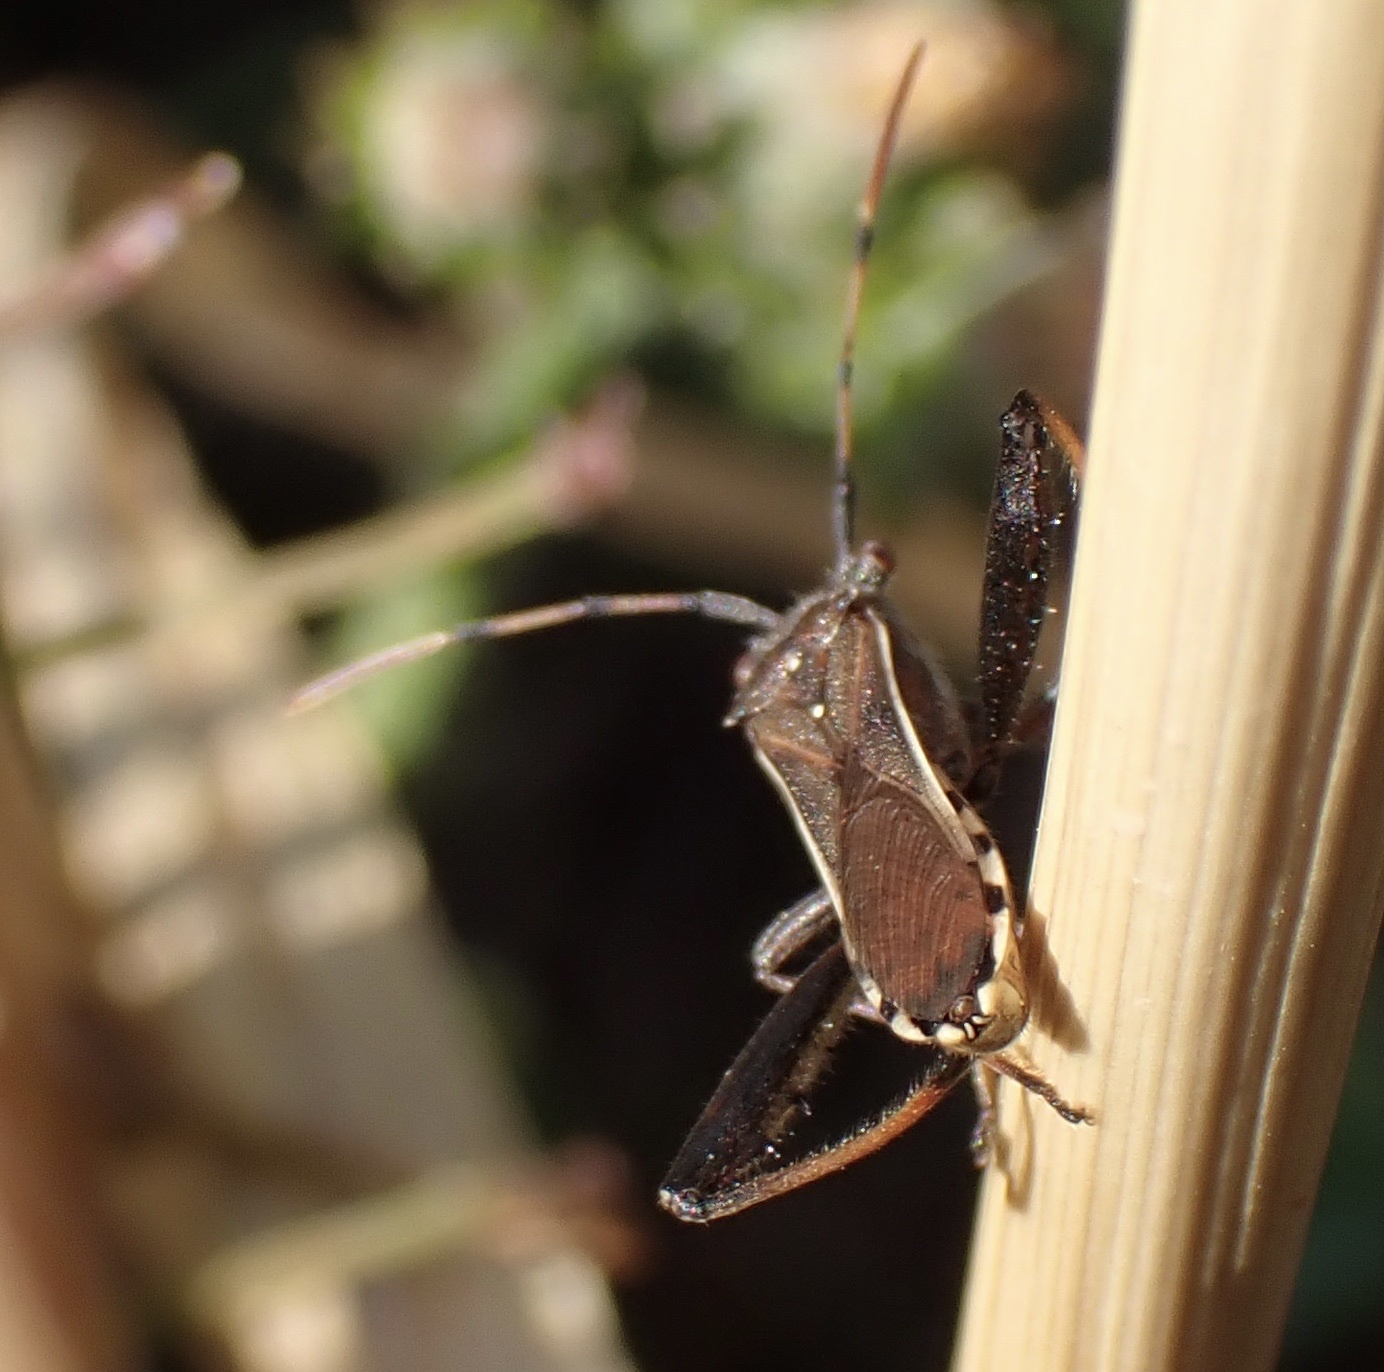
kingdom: Animalia
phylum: Arthropoda
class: Insecta
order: Hemiptera
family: Alydidae
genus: Camptopus
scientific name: Camptopus lateralis
